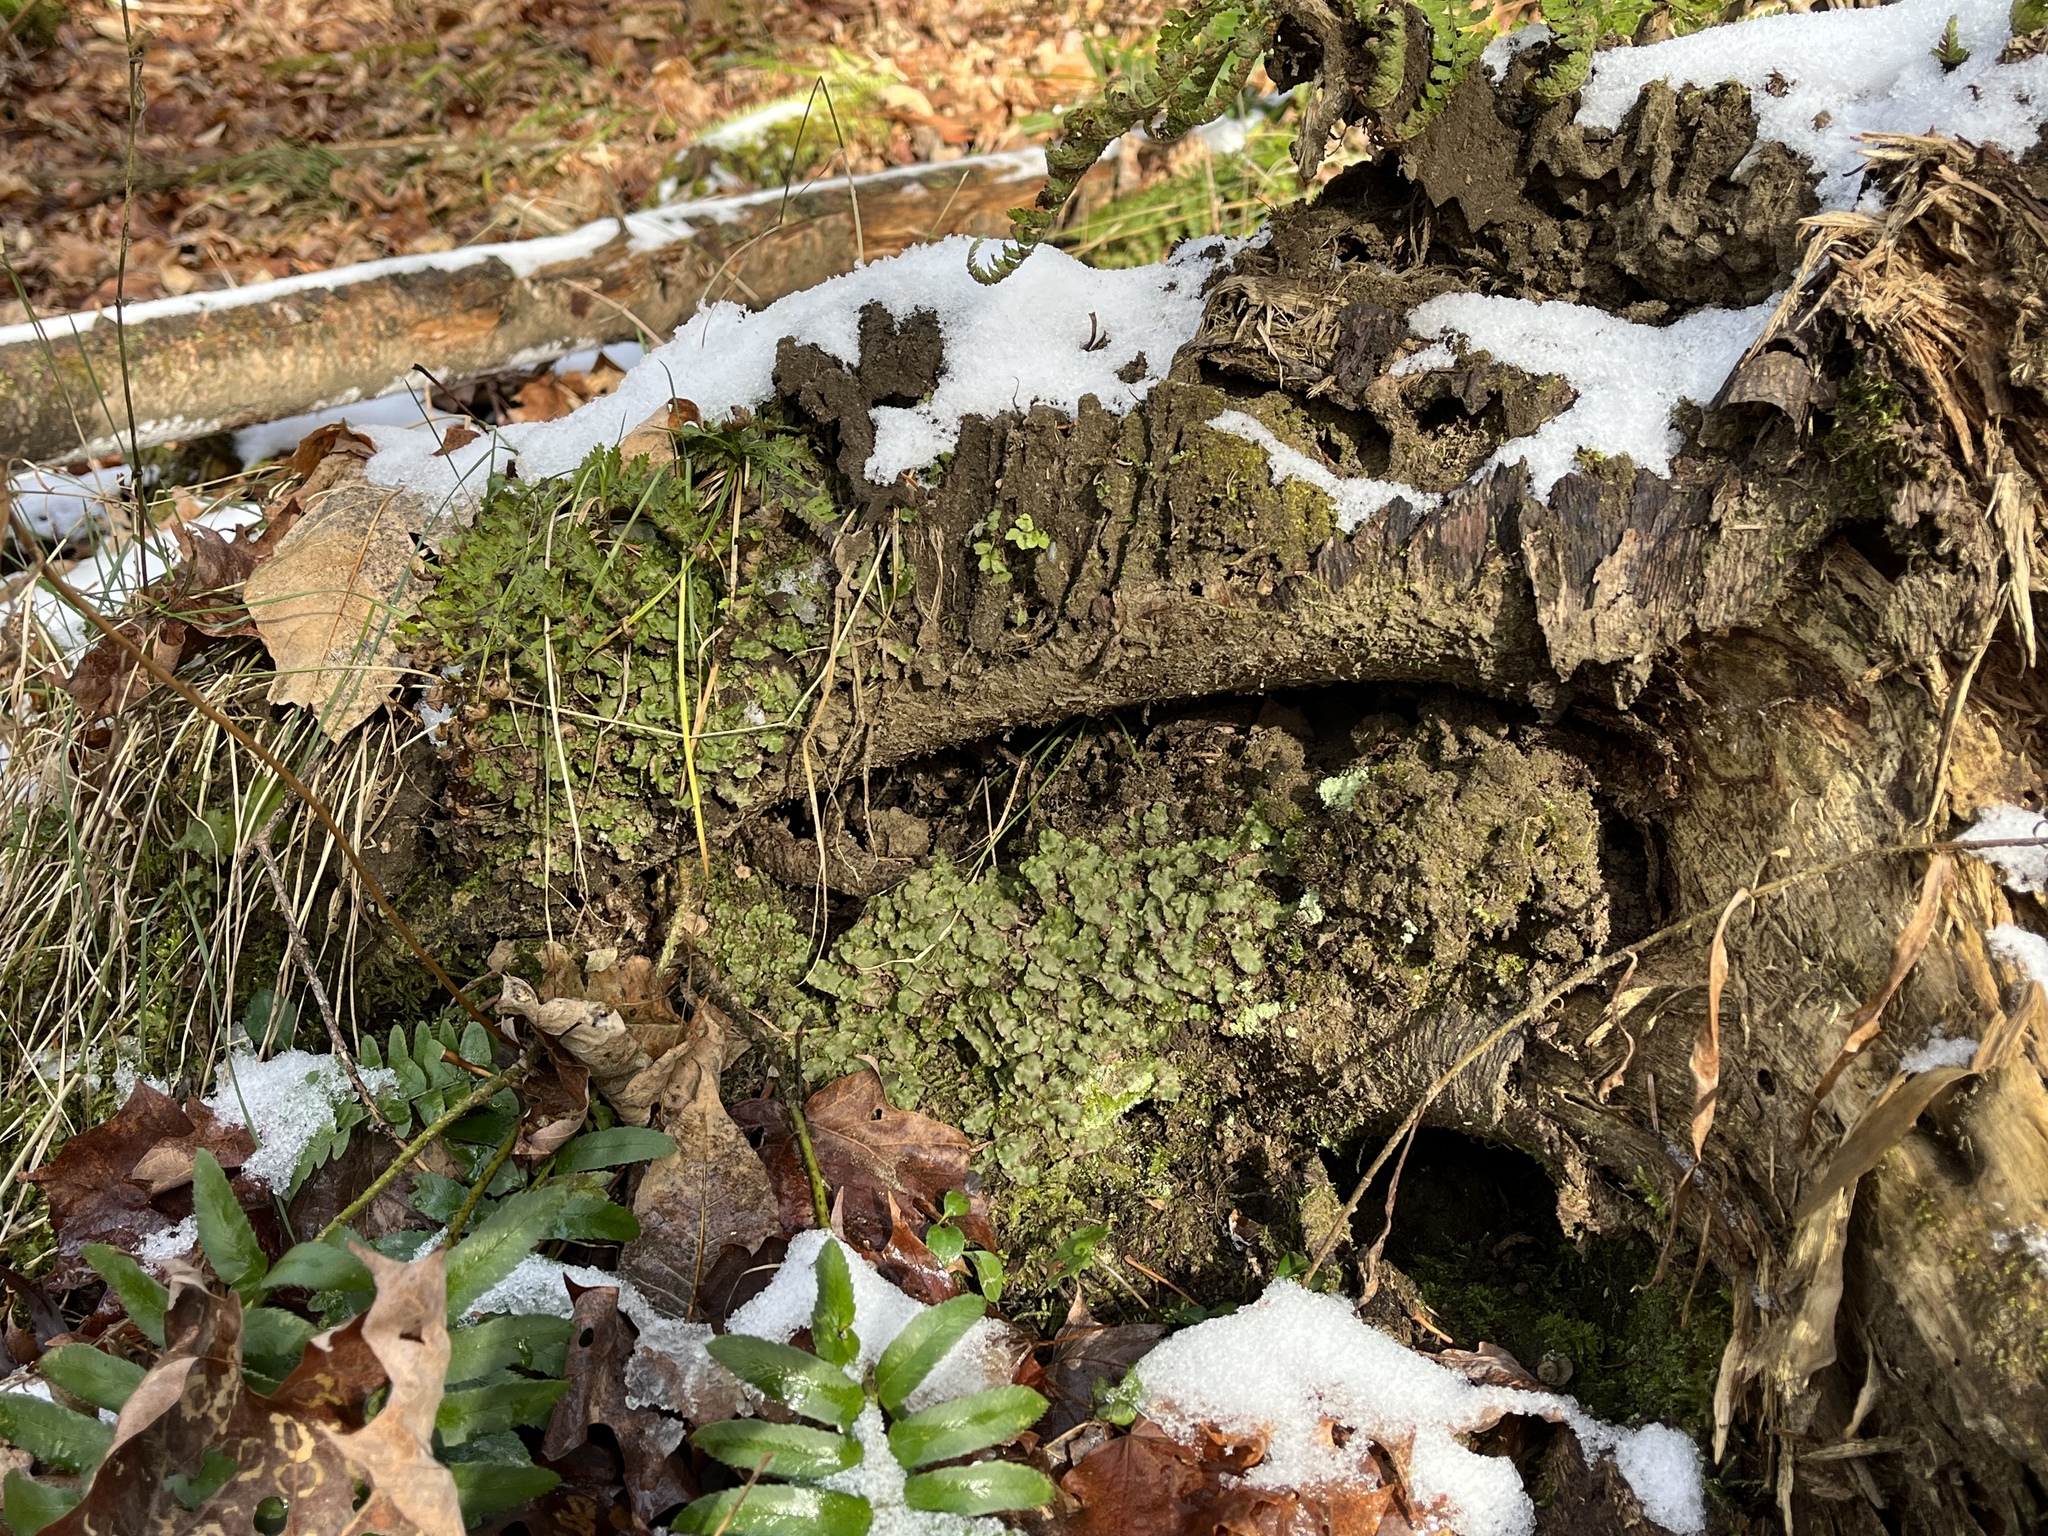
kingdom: Plantae
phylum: Marchantiophyta
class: Marchantiopsida
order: Marchantiales
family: Marchantiaceae
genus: Marchantia
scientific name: Marchantia quadrata
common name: Narrow mushroom-headed liverwort
